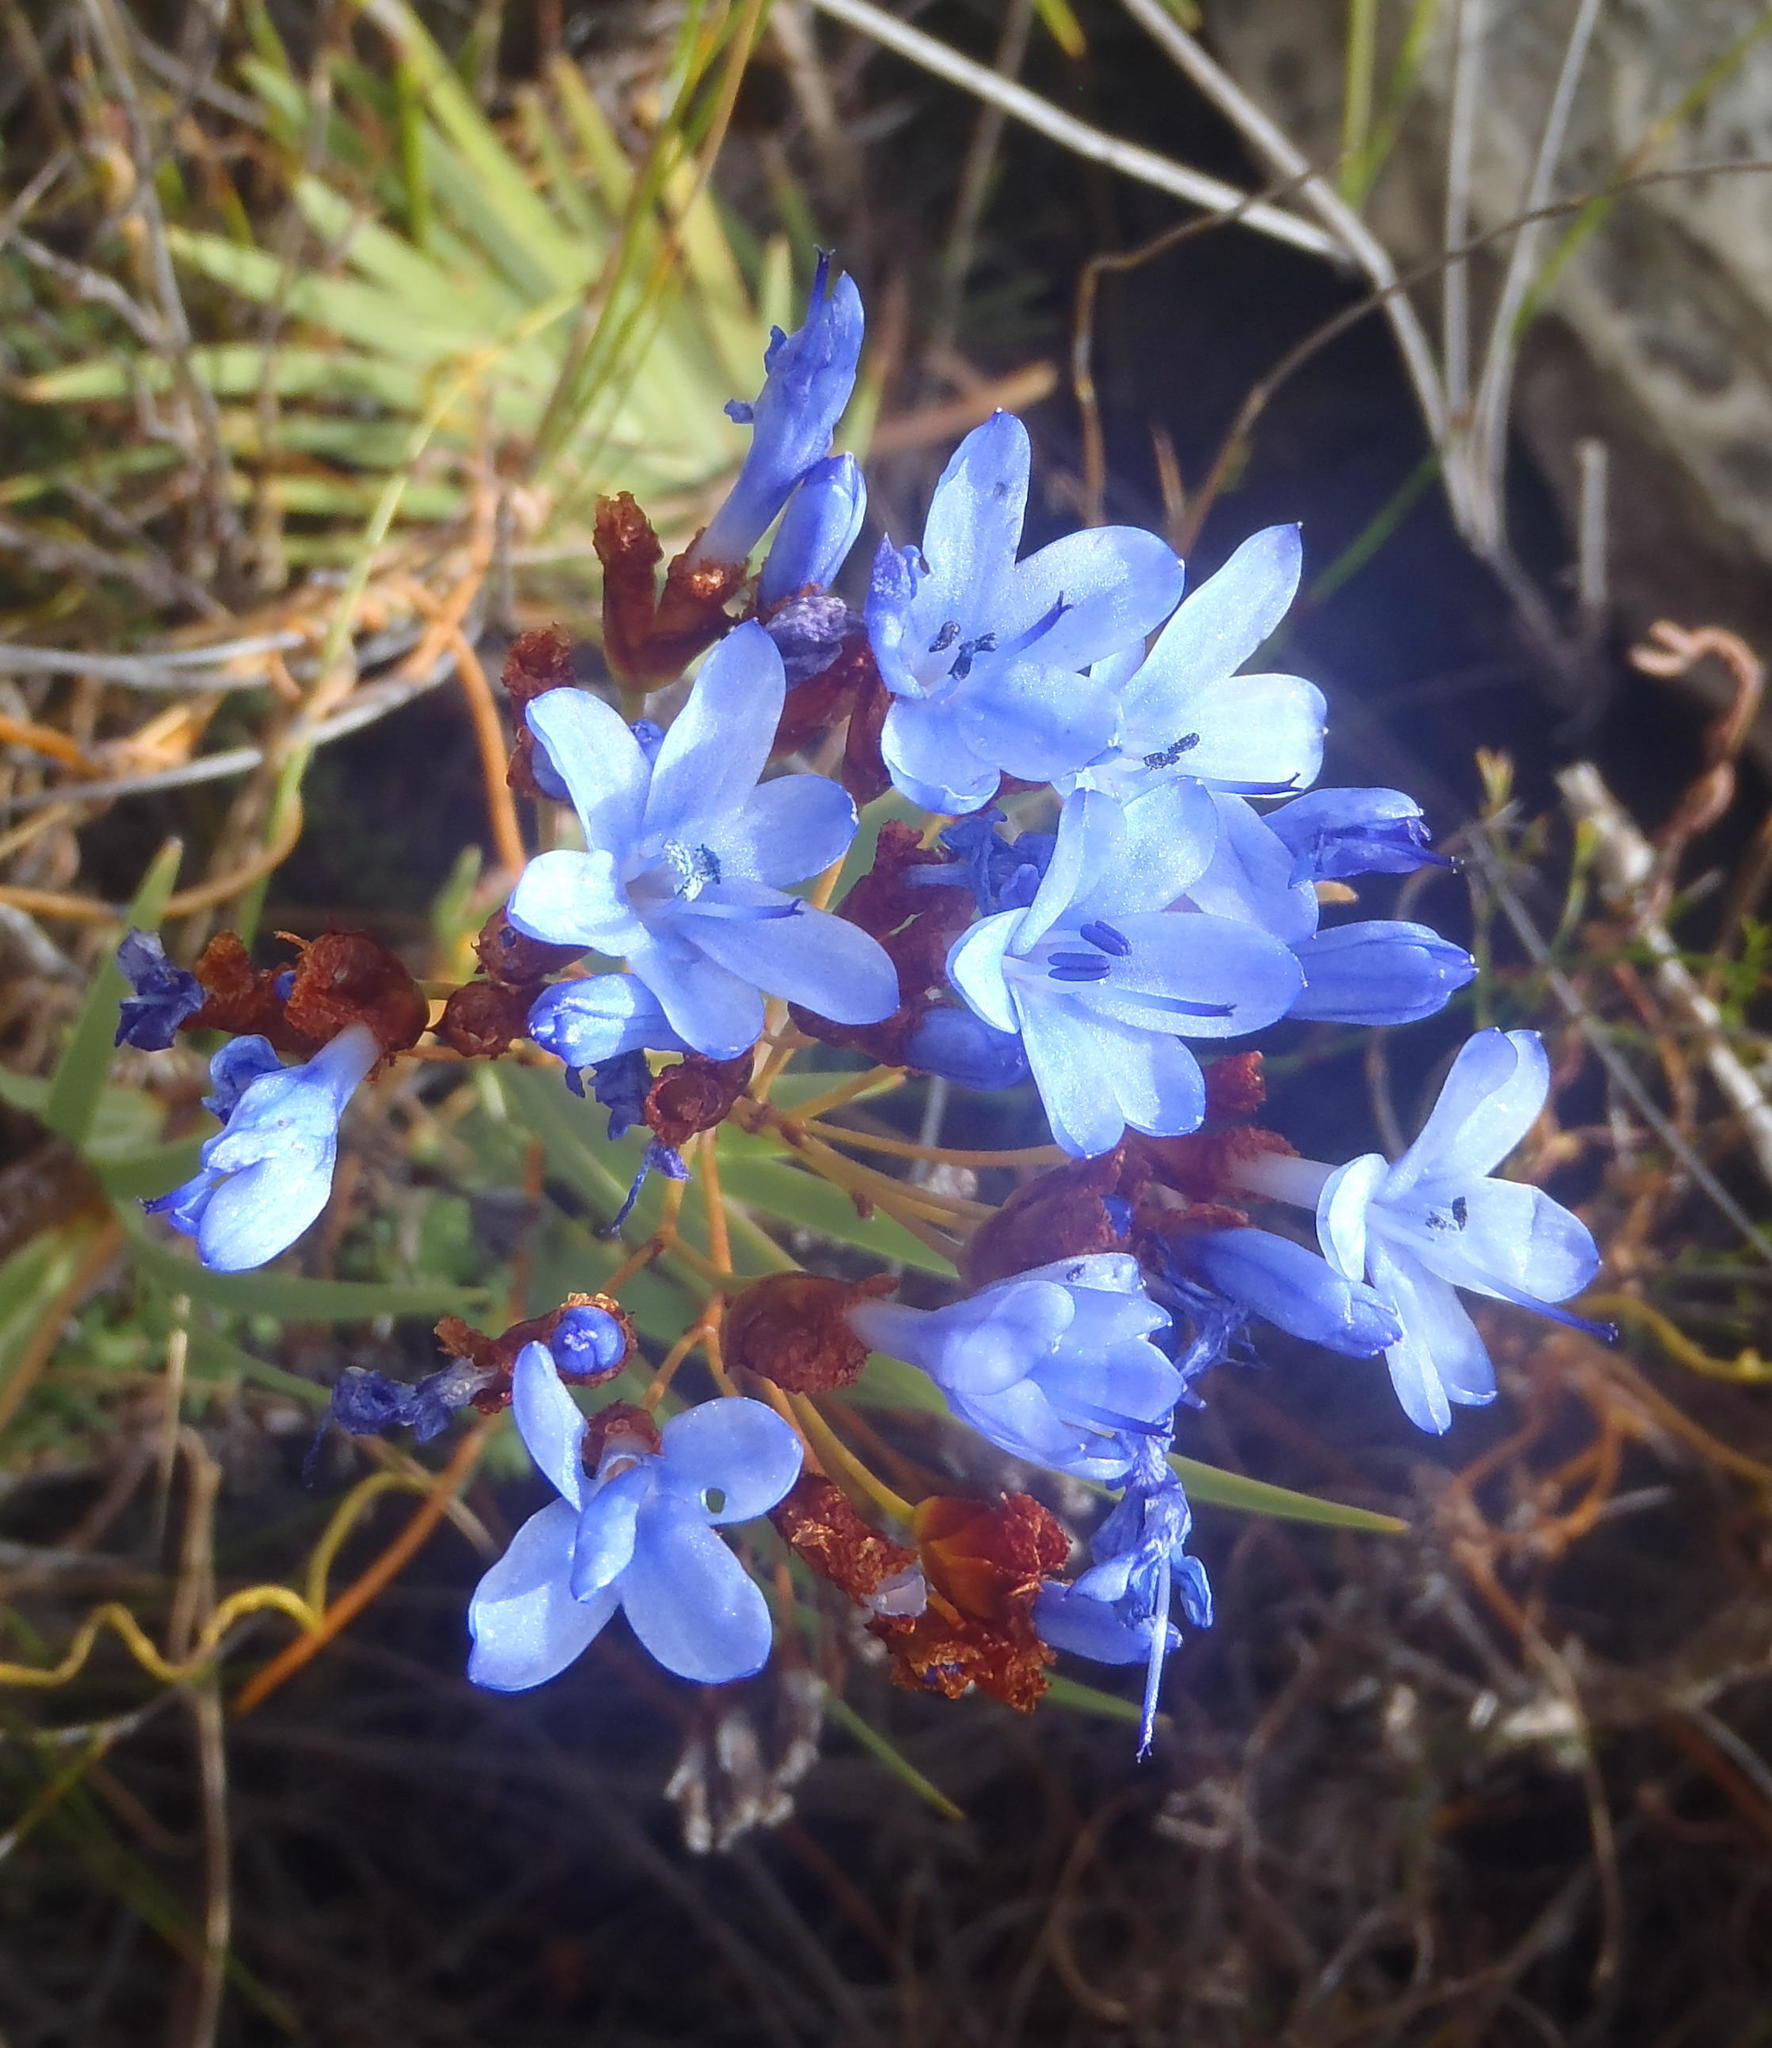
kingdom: Plantae
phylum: Tracheophyta
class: Liliopsida
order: Asparagales
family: Iridaceae
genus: Nivenia
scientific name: Nivenia binata
